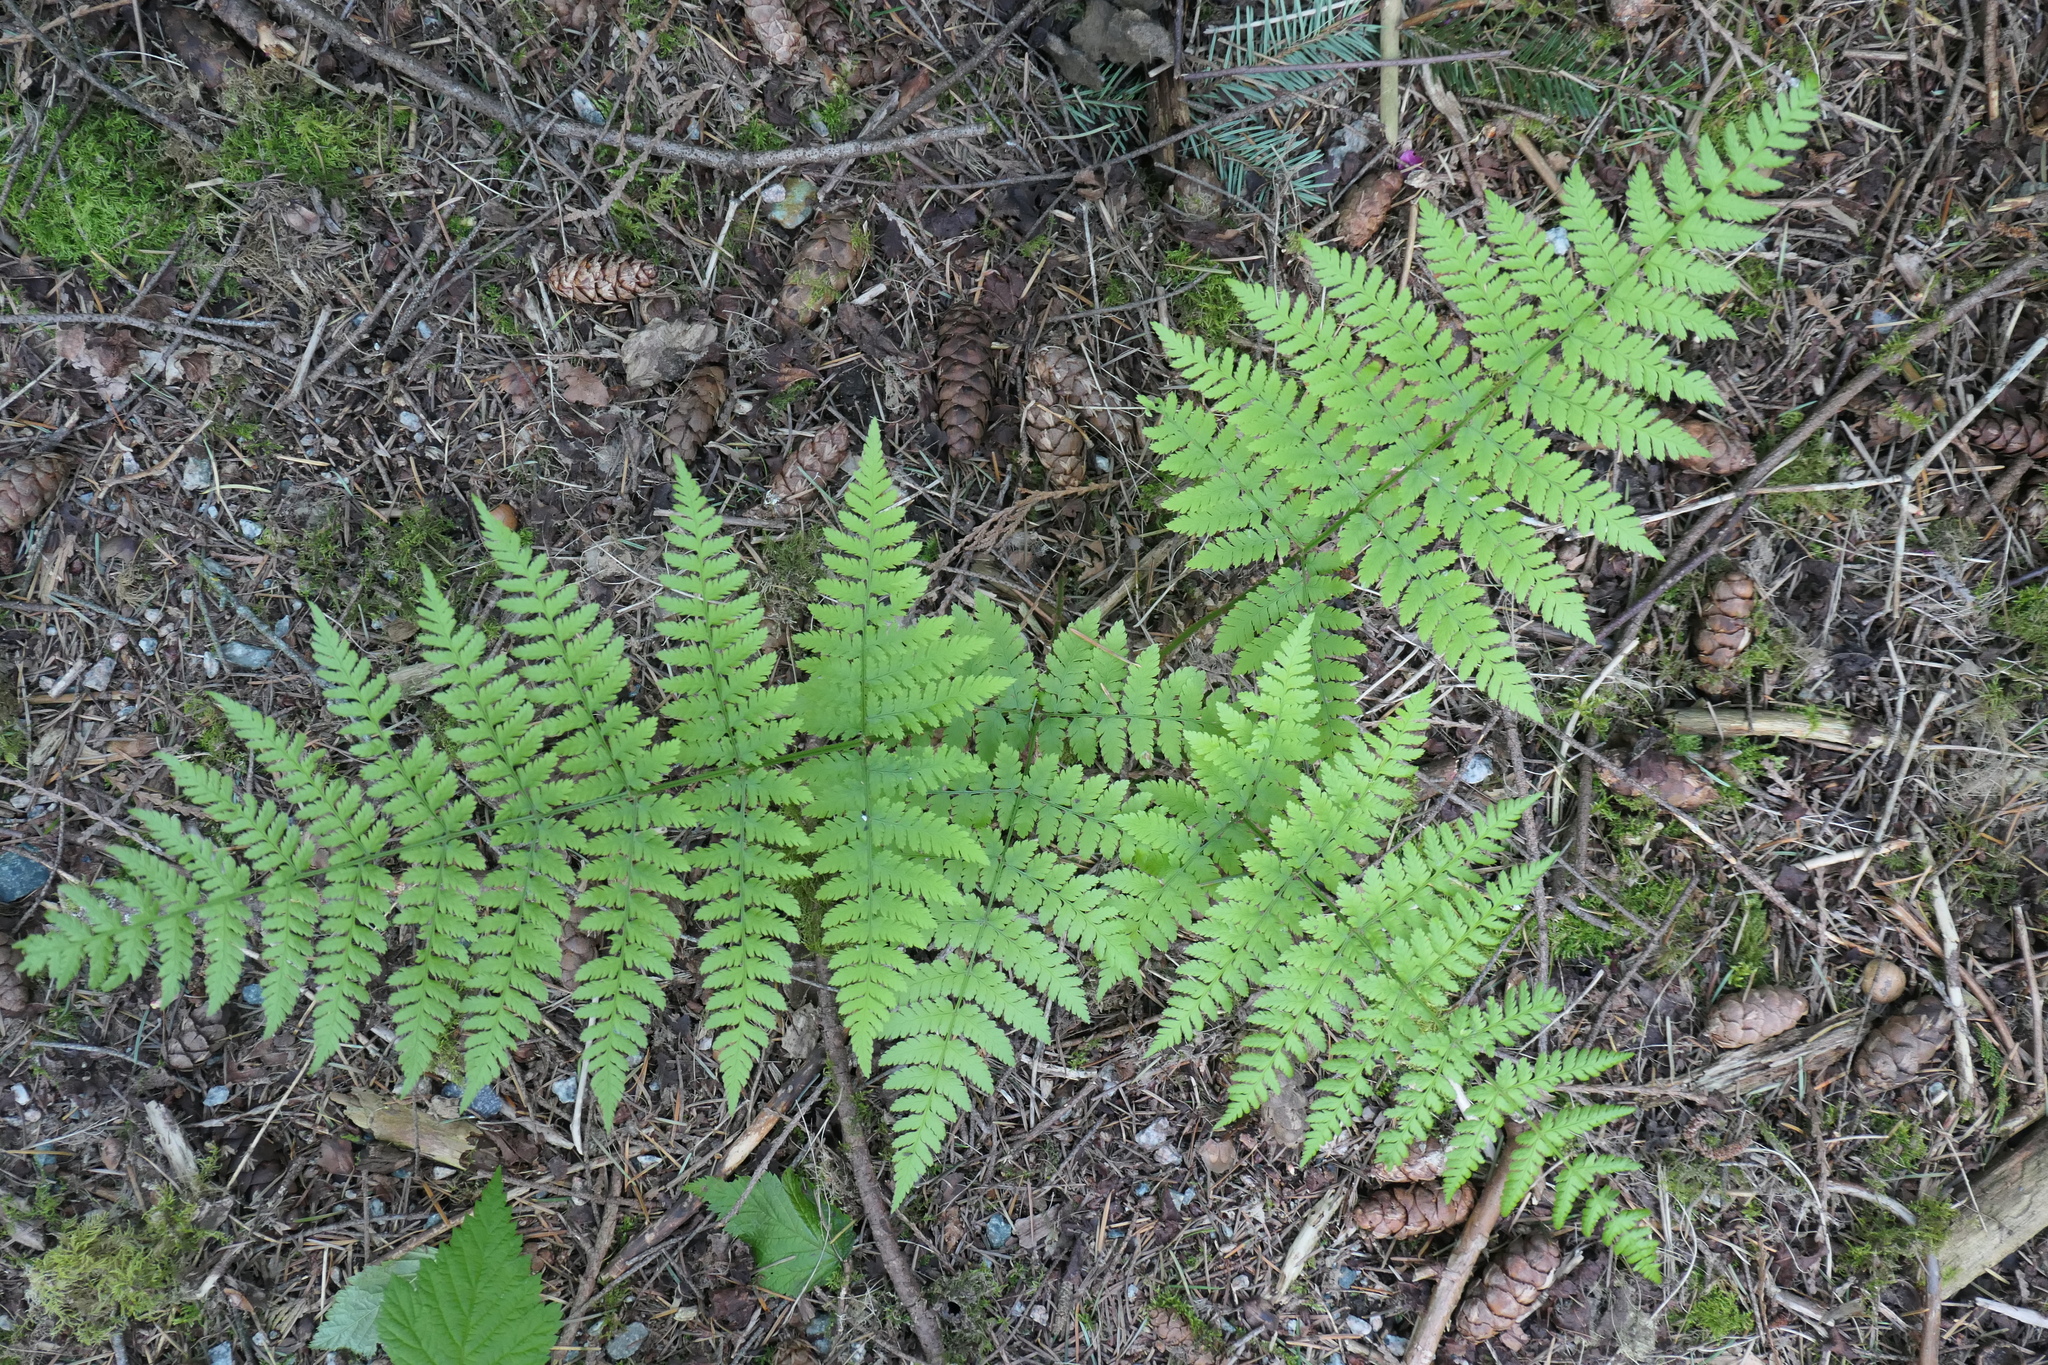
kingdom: Plantae
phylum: Tracheophyta
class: Polypodiopsida
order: Polypodiales
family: Dryopteridaceae
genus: Dryopteris
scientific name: Dryopteris expansa
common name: Northern buckler fern
